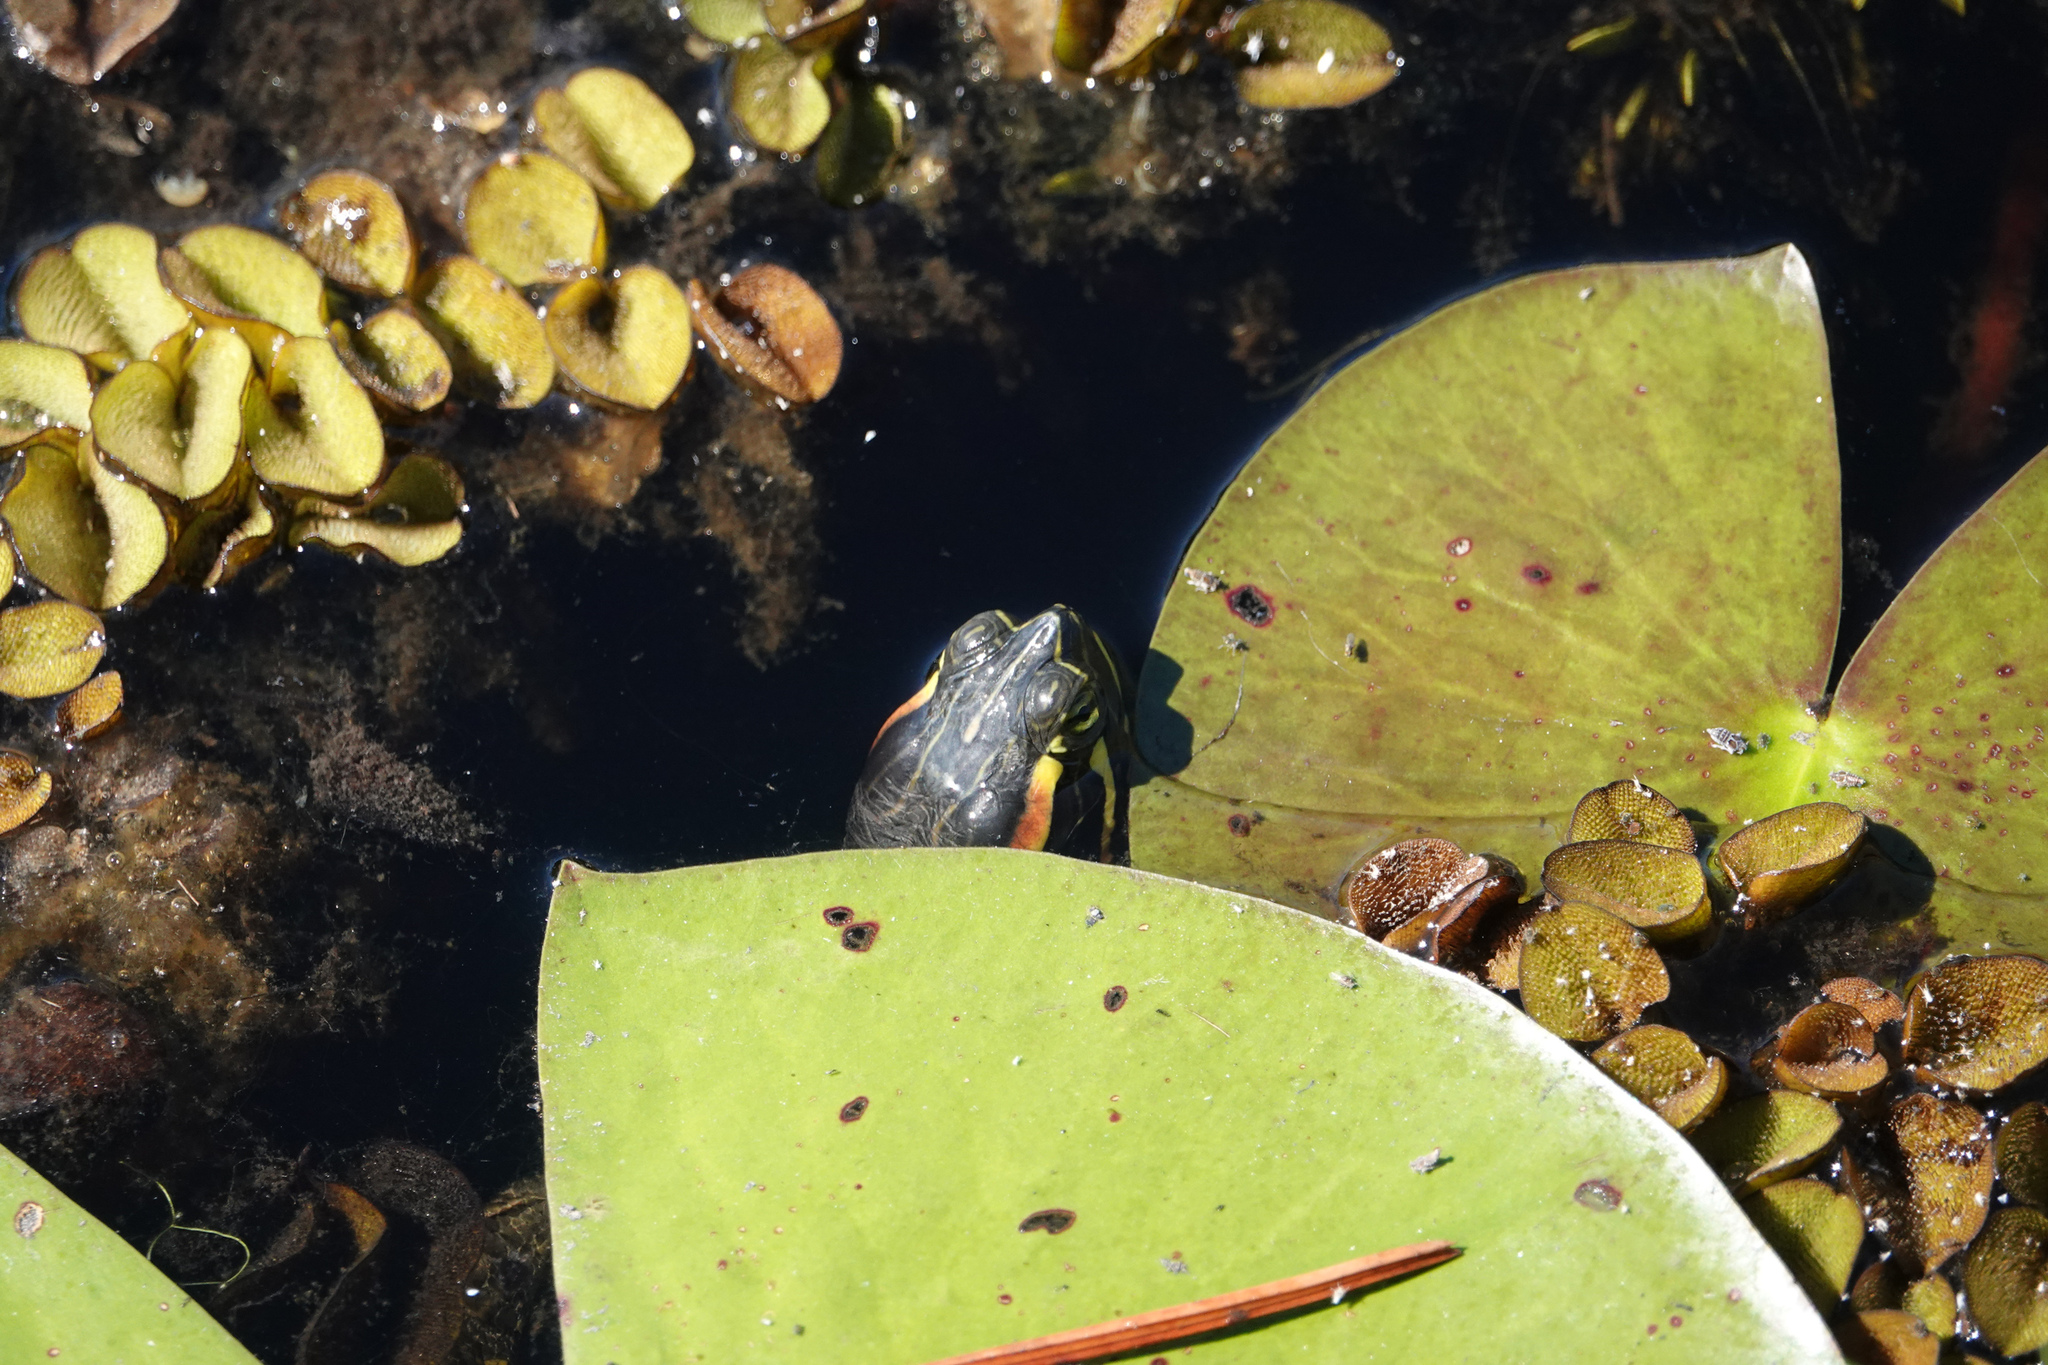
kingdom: Animalia
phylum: Chordata
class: Testudines
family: Emydidae
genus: Trachemys
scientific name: Trachemys scripta
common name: Slider
